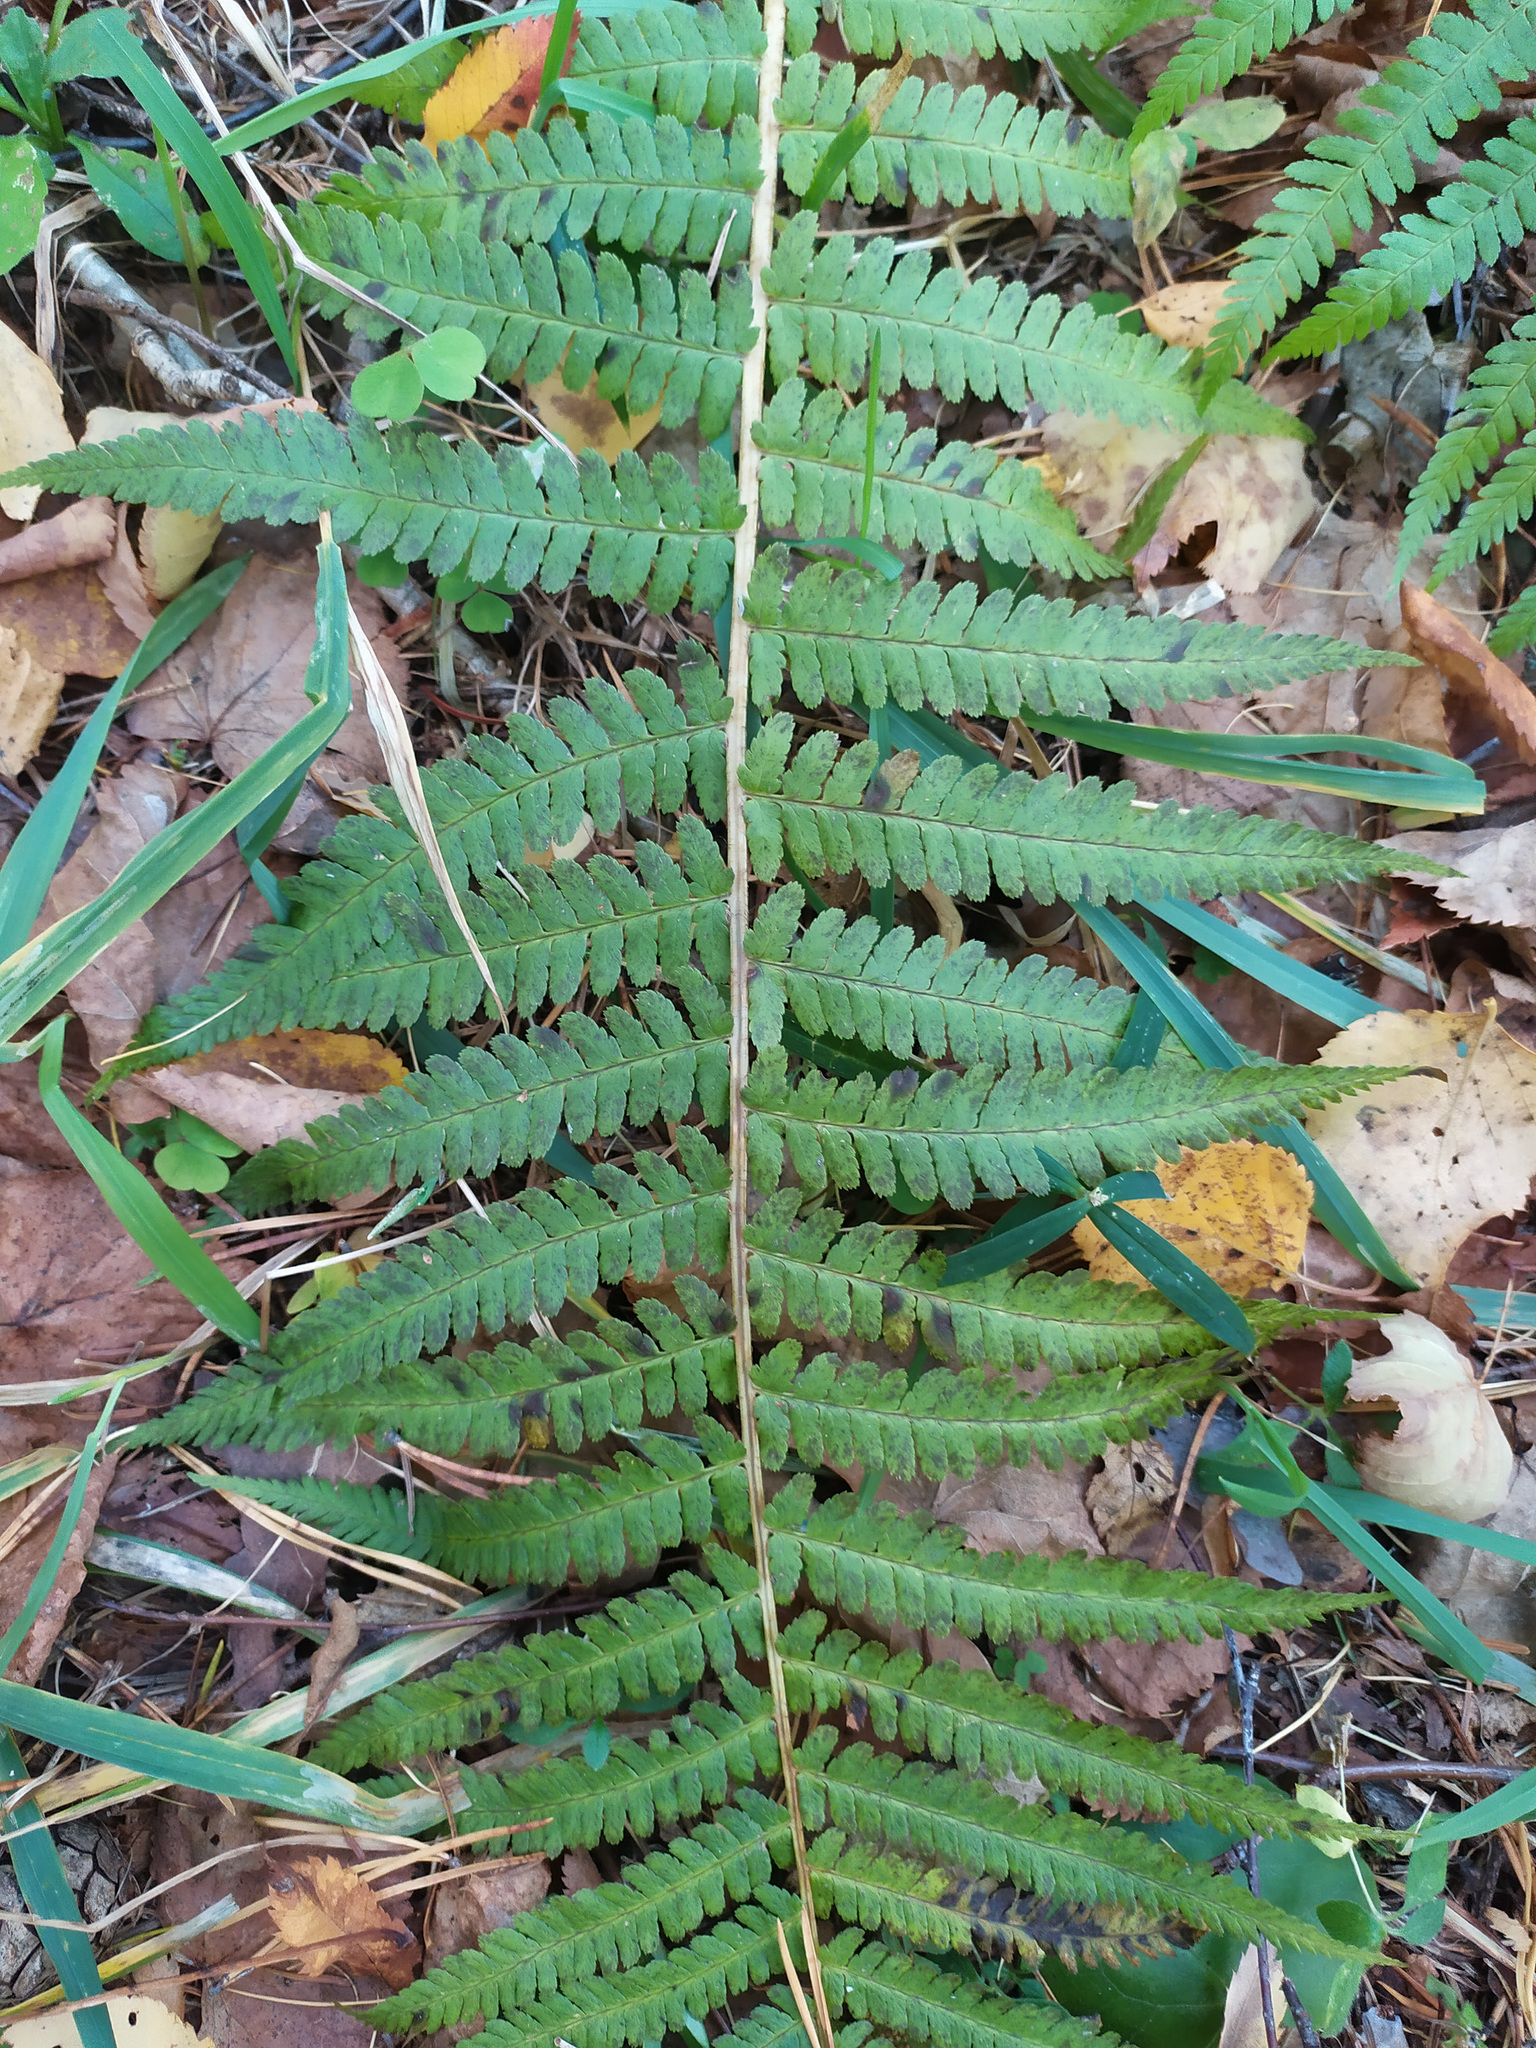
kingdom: Plantae
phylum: Tracheophyta
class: Polypodiopsida
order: Polypodiales
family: Dryopteridaceae
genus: Dryopteris
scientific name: Dryopteris filix-mas
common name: Male fern
